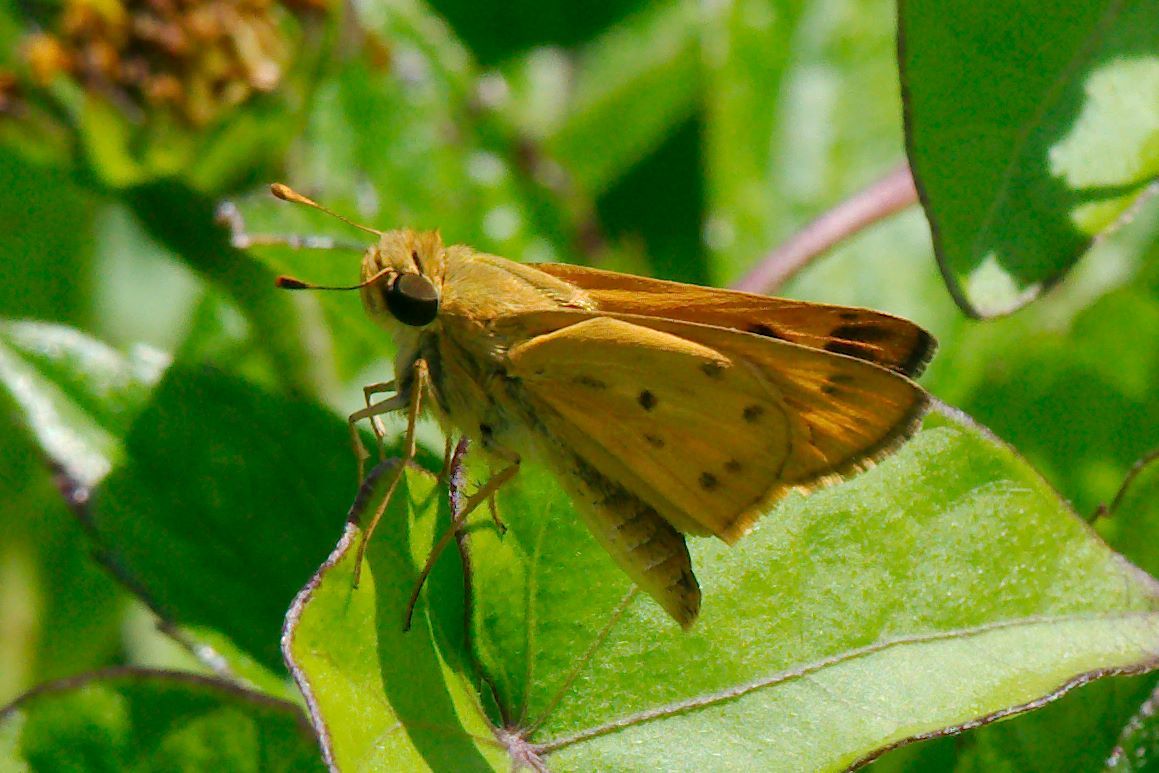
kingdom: Animalia
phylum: Arthropoda
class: Insecta
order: Lepidoptera
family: Hesperiidae
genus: Hylephila
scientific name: Hylephila phyleus
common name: Fiery skipper
